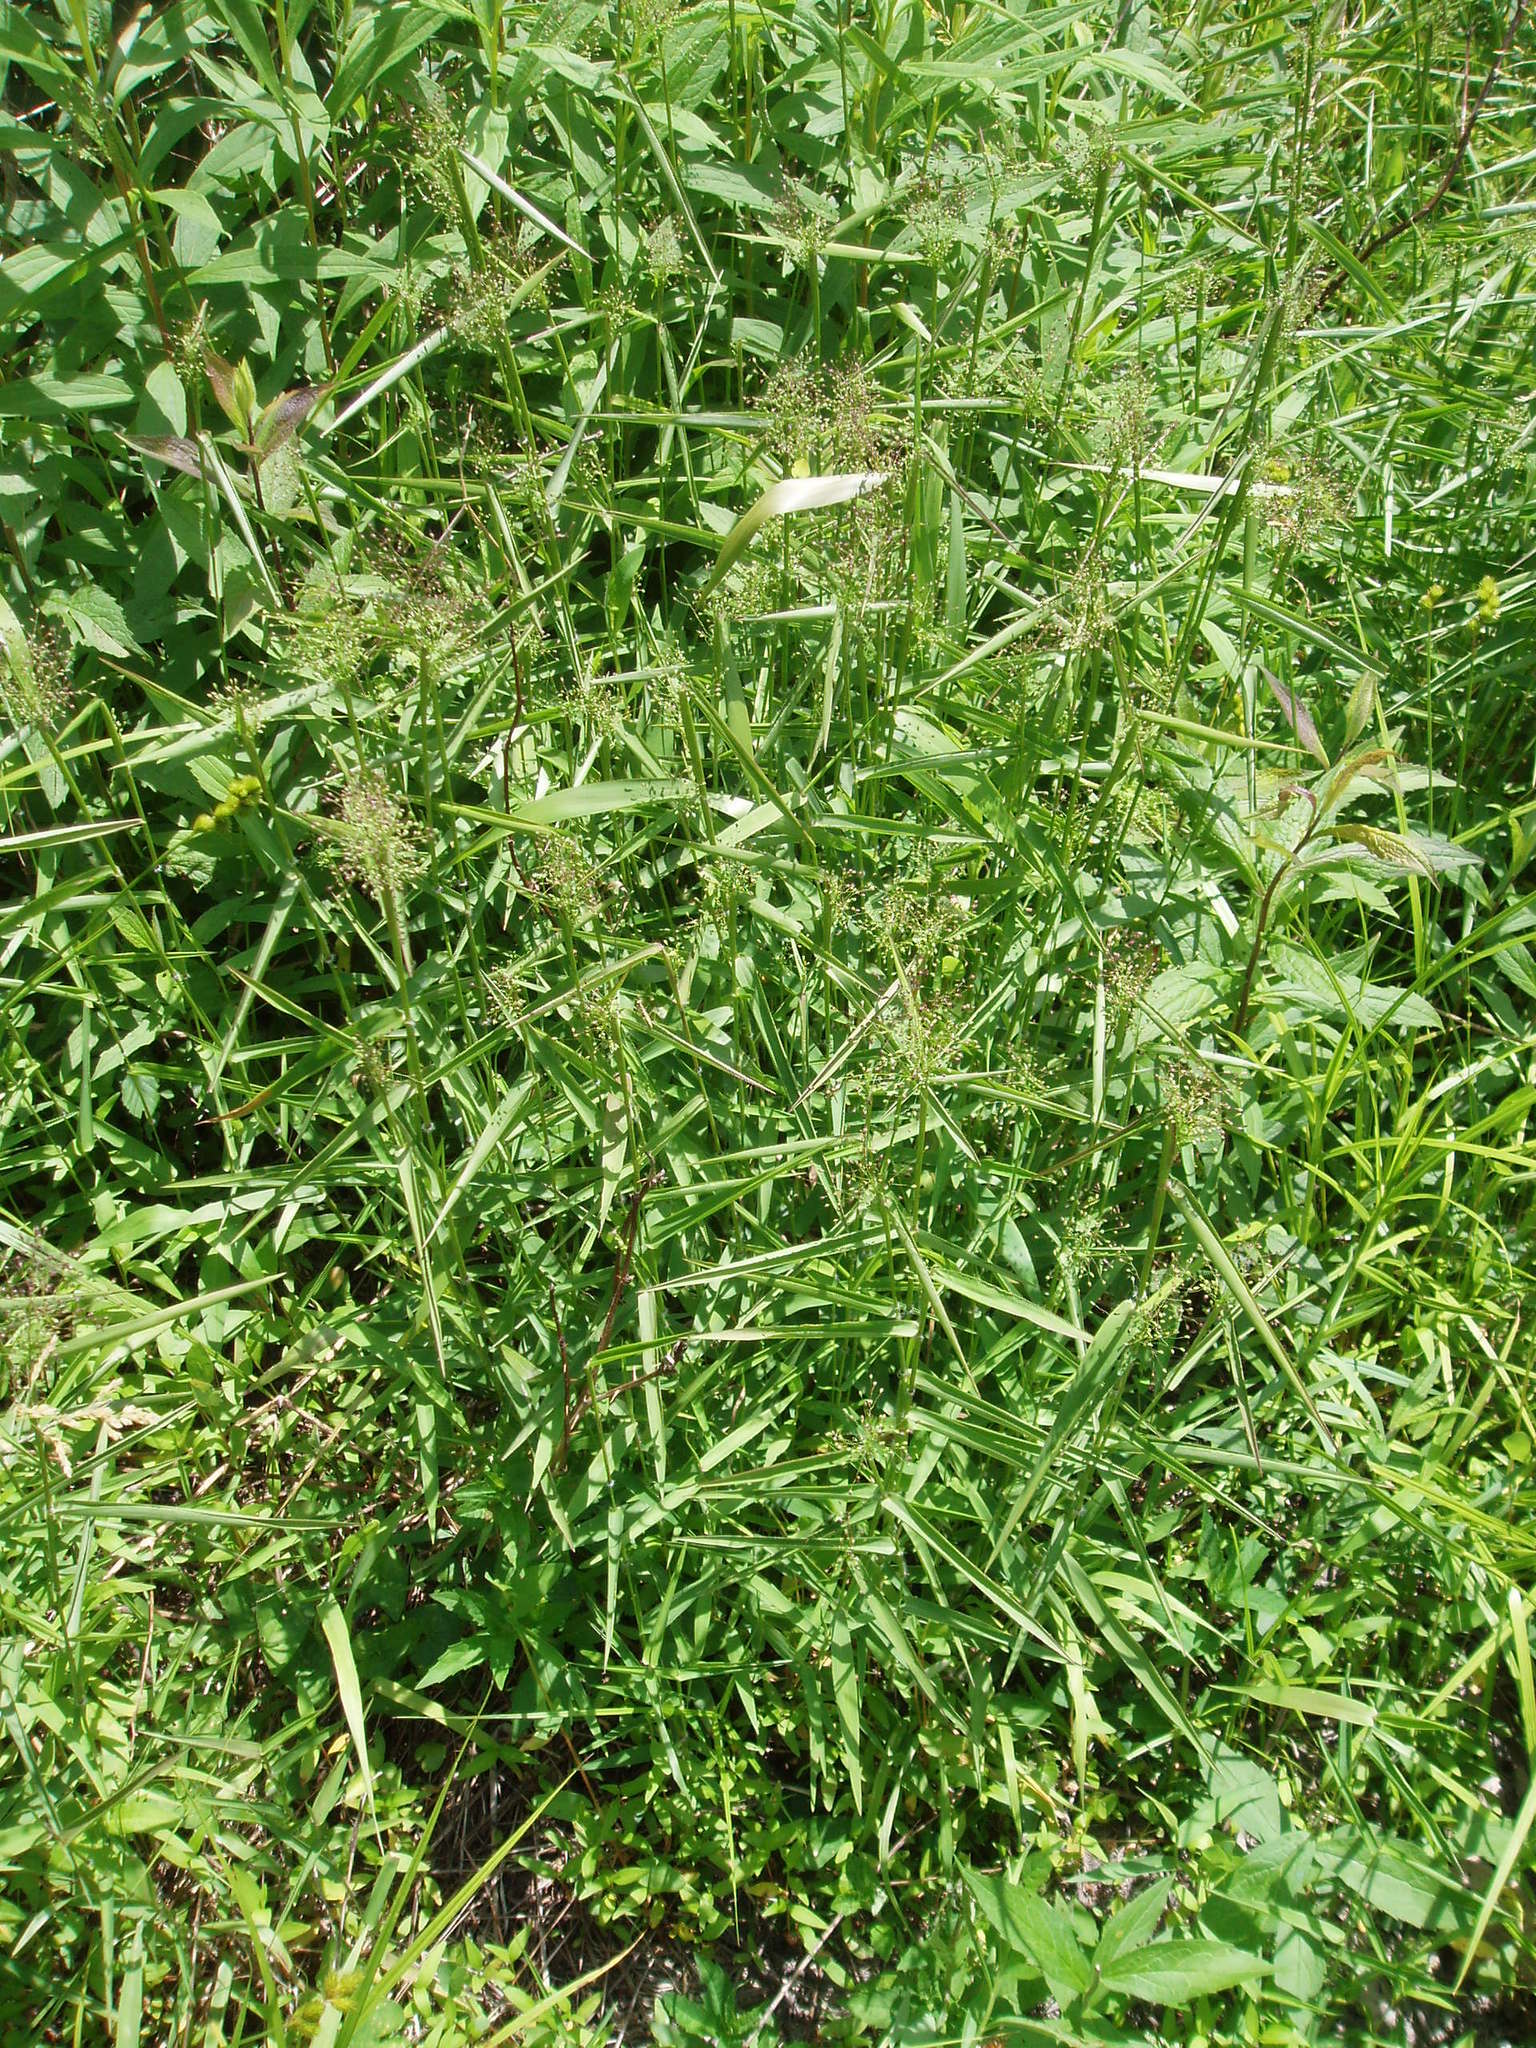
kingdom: Plantae
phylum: Tracheophyta
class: Liliopsida
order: Poales
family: Poaceae
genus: Dichanthelium
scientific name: Dichanthelium microcarpon
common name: Small-fruited witchgrass
